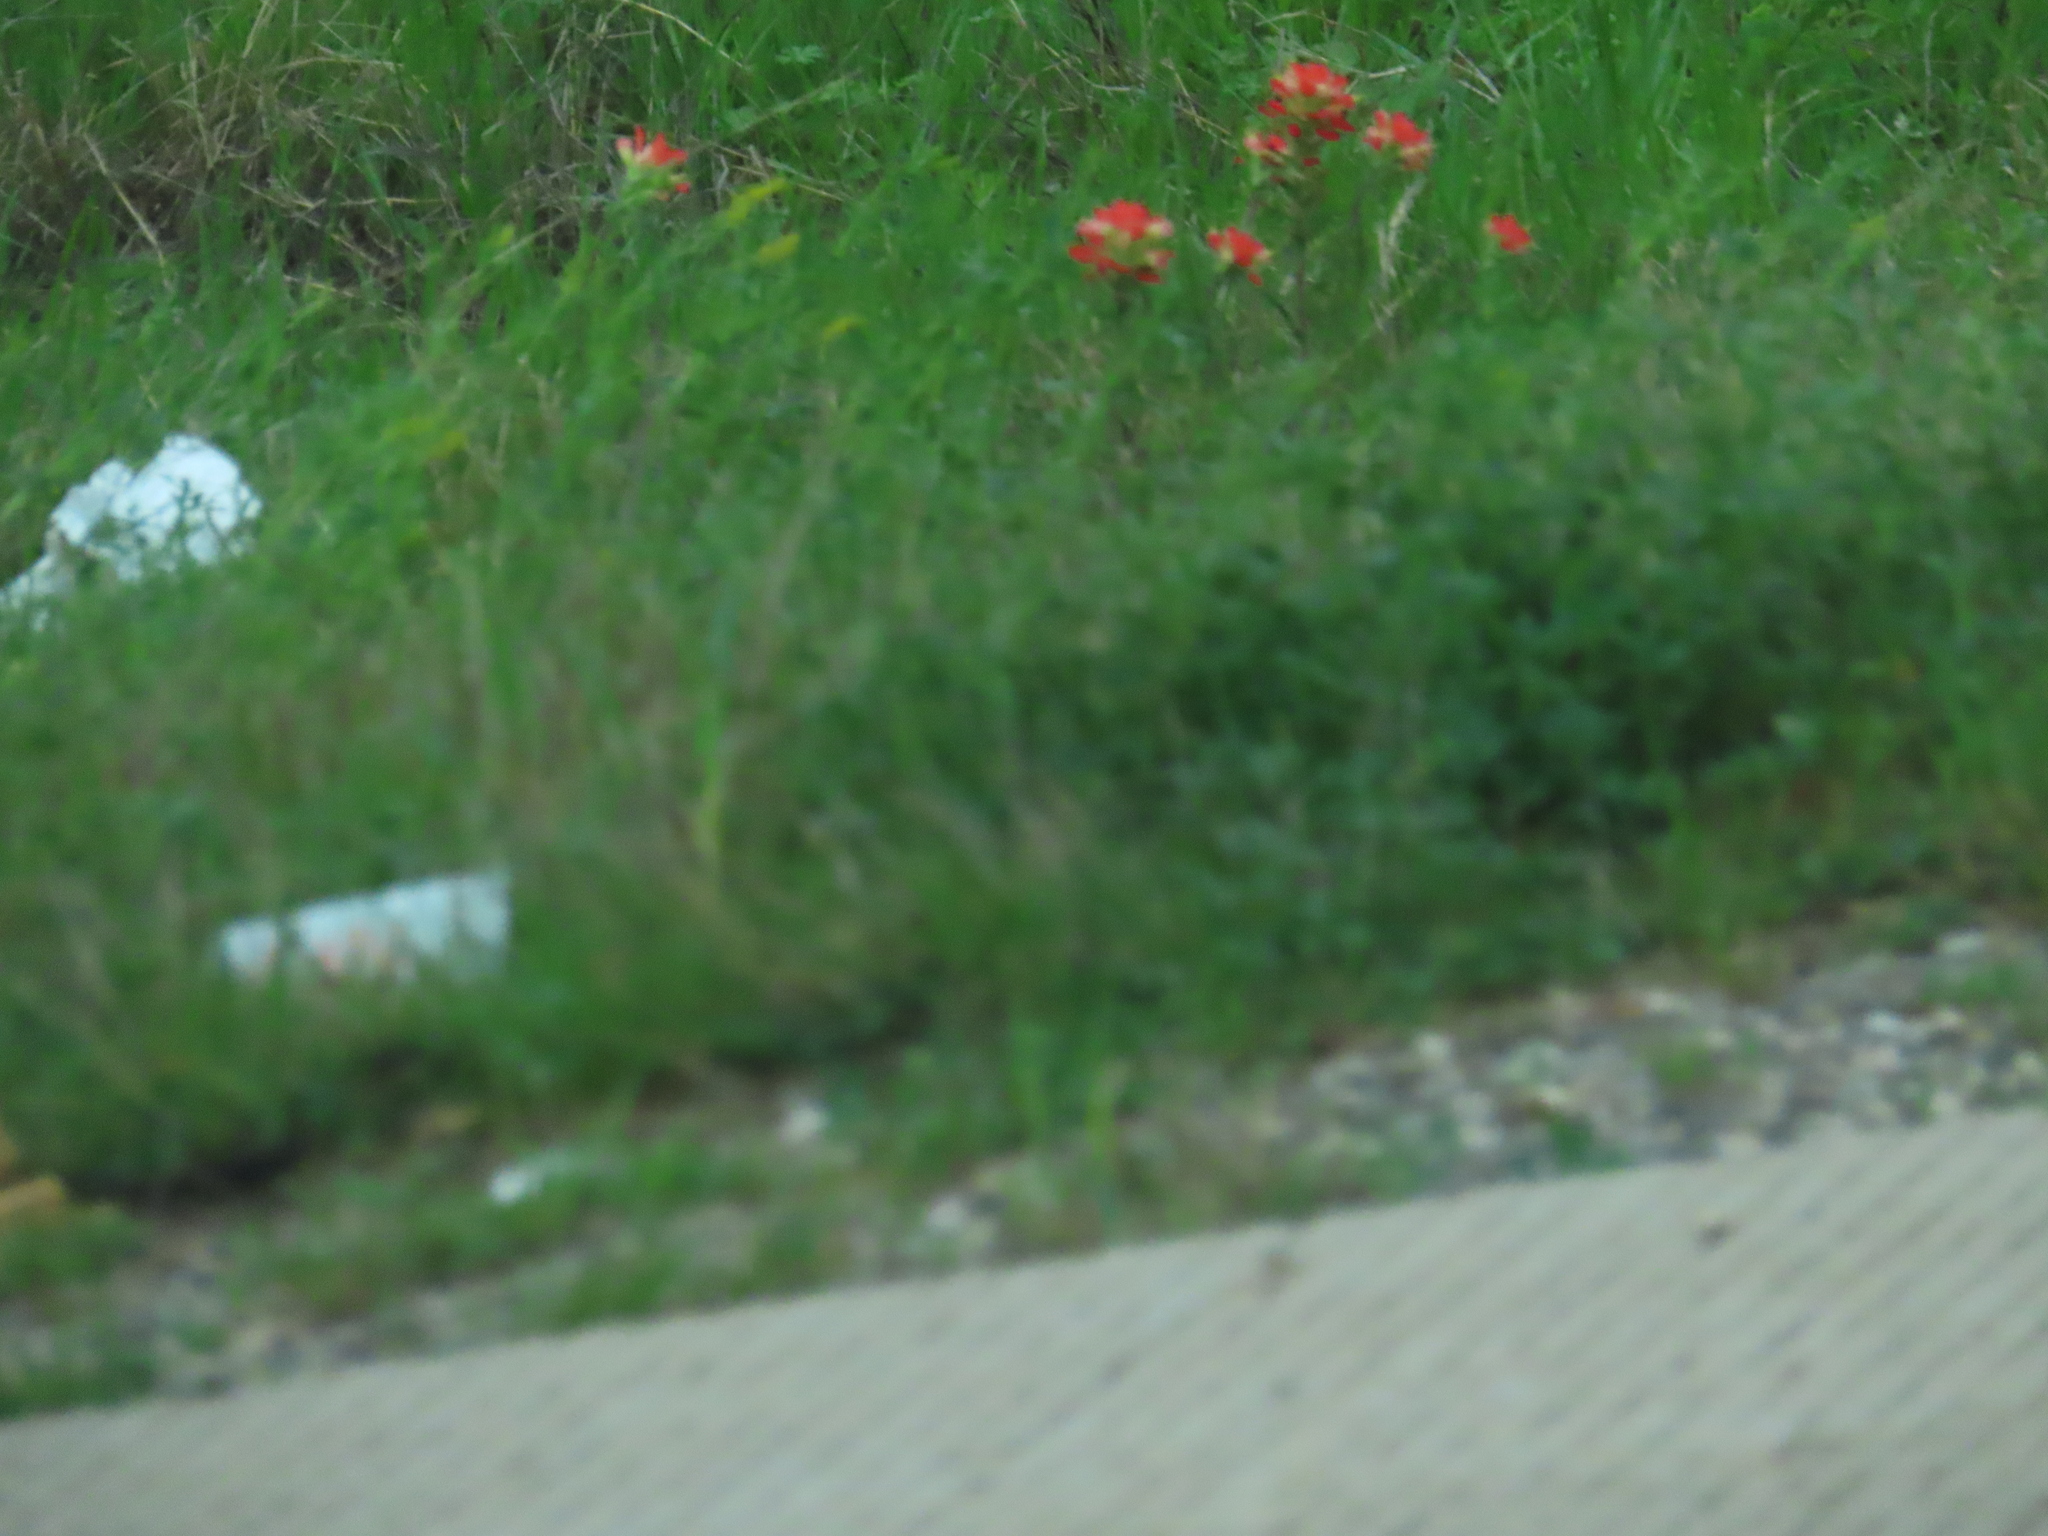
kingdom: Plantae
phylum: Tracheophyta
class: Magnoliopsida
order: Lamiales
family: Orobanchaceae
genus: Castilleja
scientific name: Castilleja indivisa
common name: Texas paintbrush
